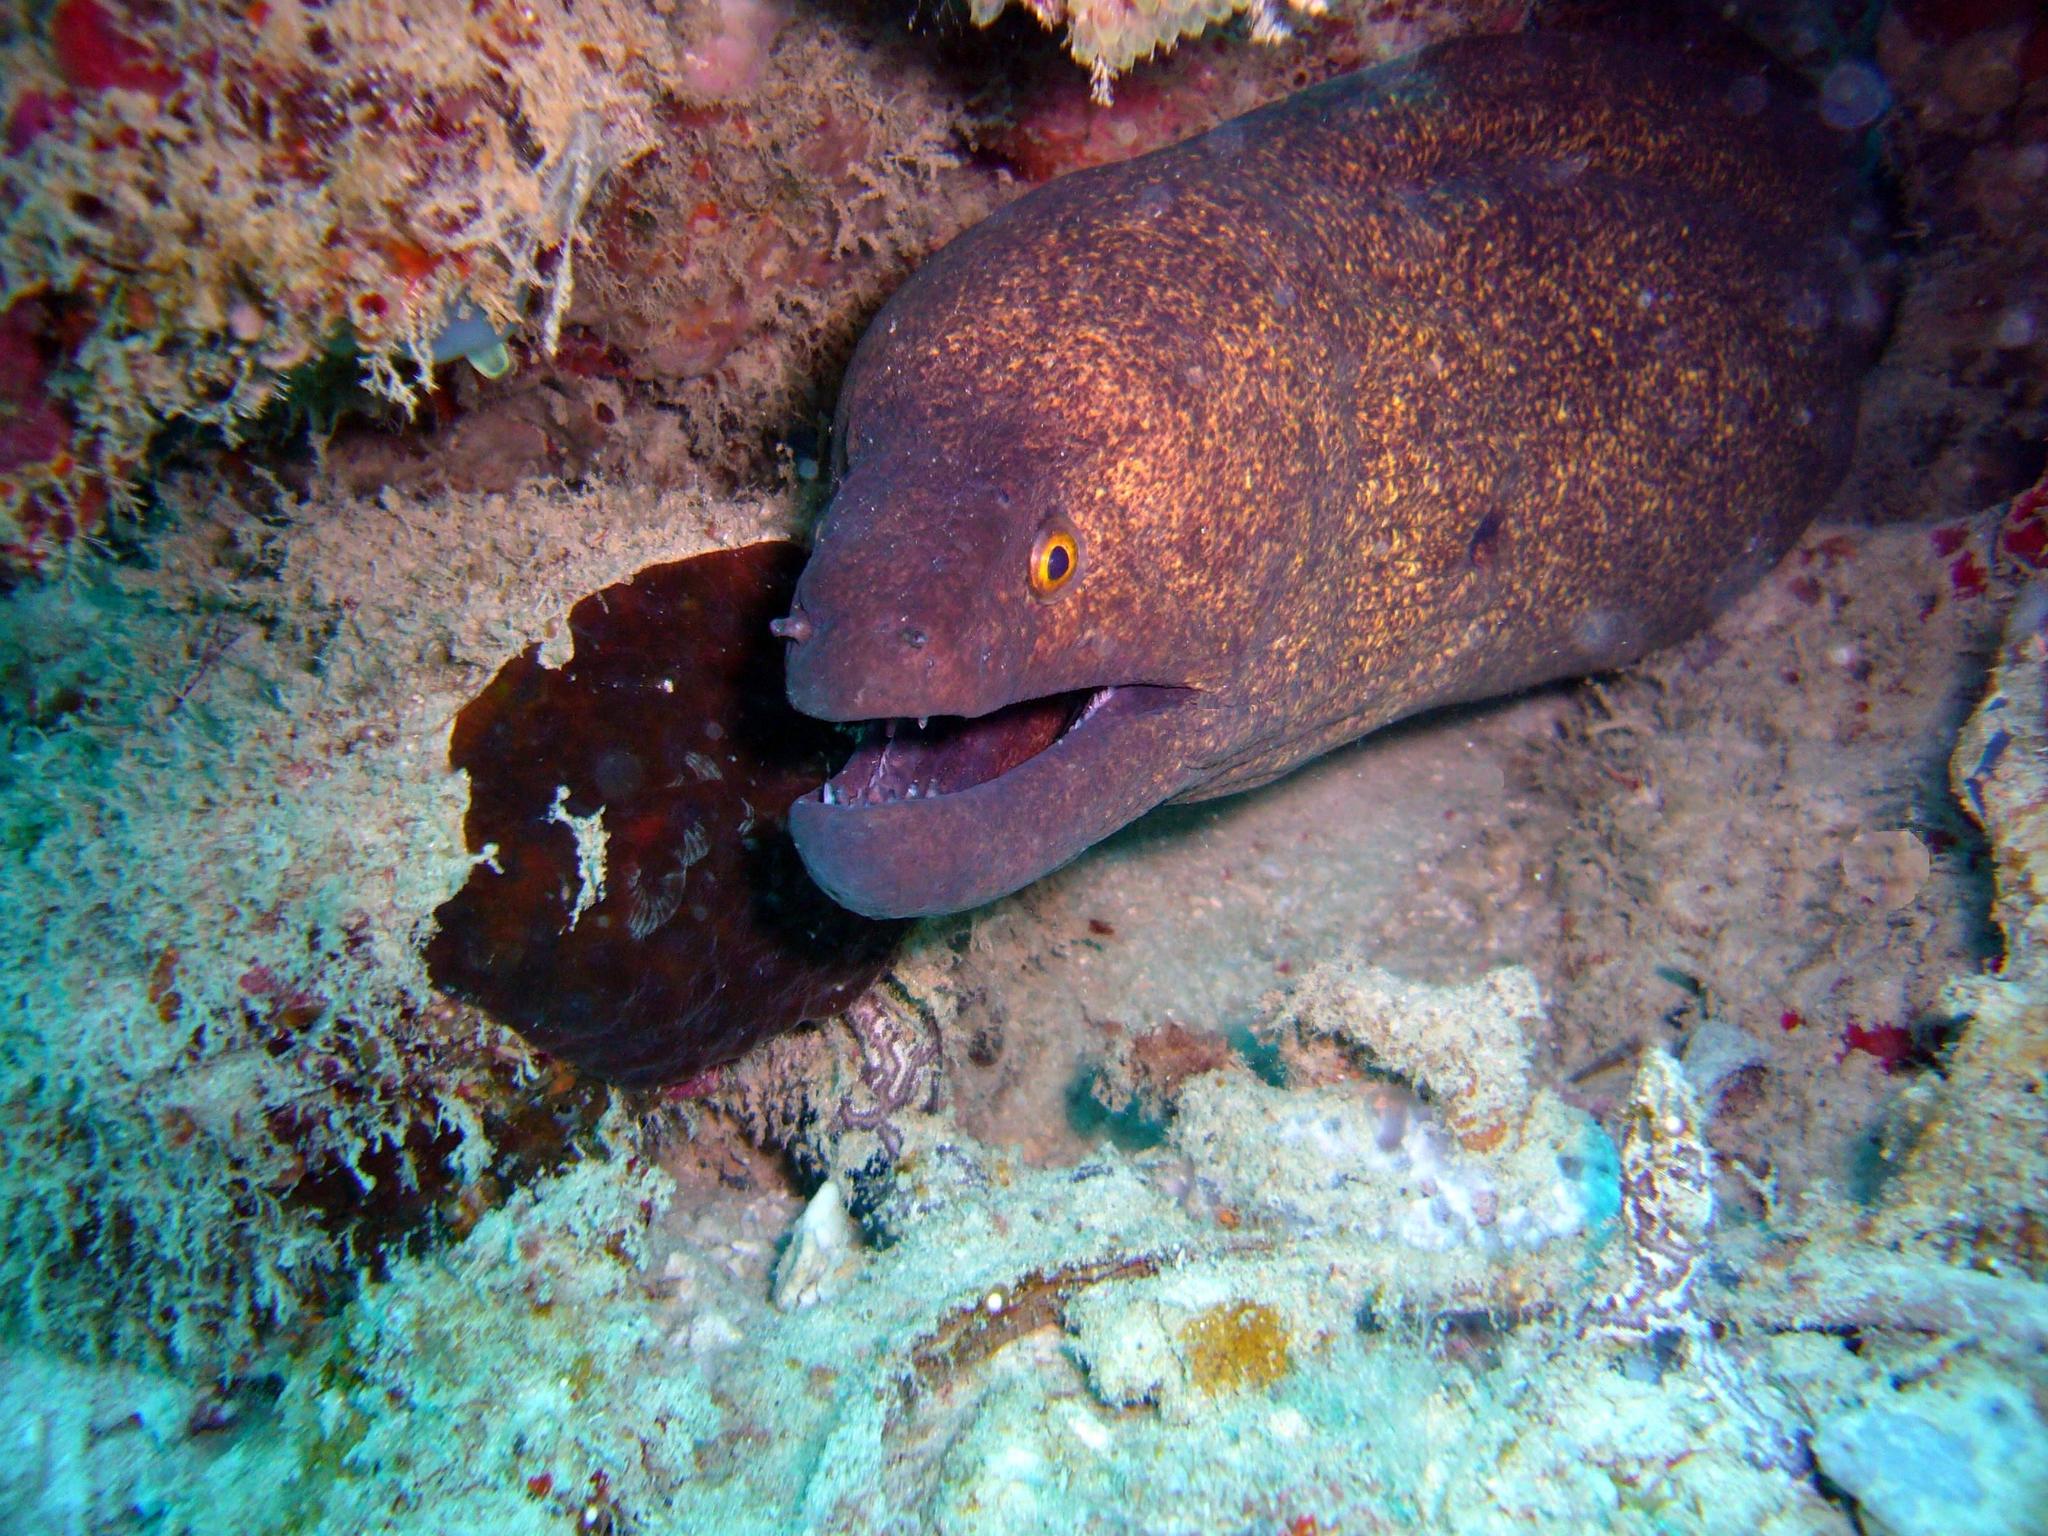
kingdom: Animalia
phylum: Chordata
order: Anguilliformes
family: Muraenidae
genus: Gymnothorax
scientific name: Gymnothorax flavimarginatus
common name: Yellow-edged moray
